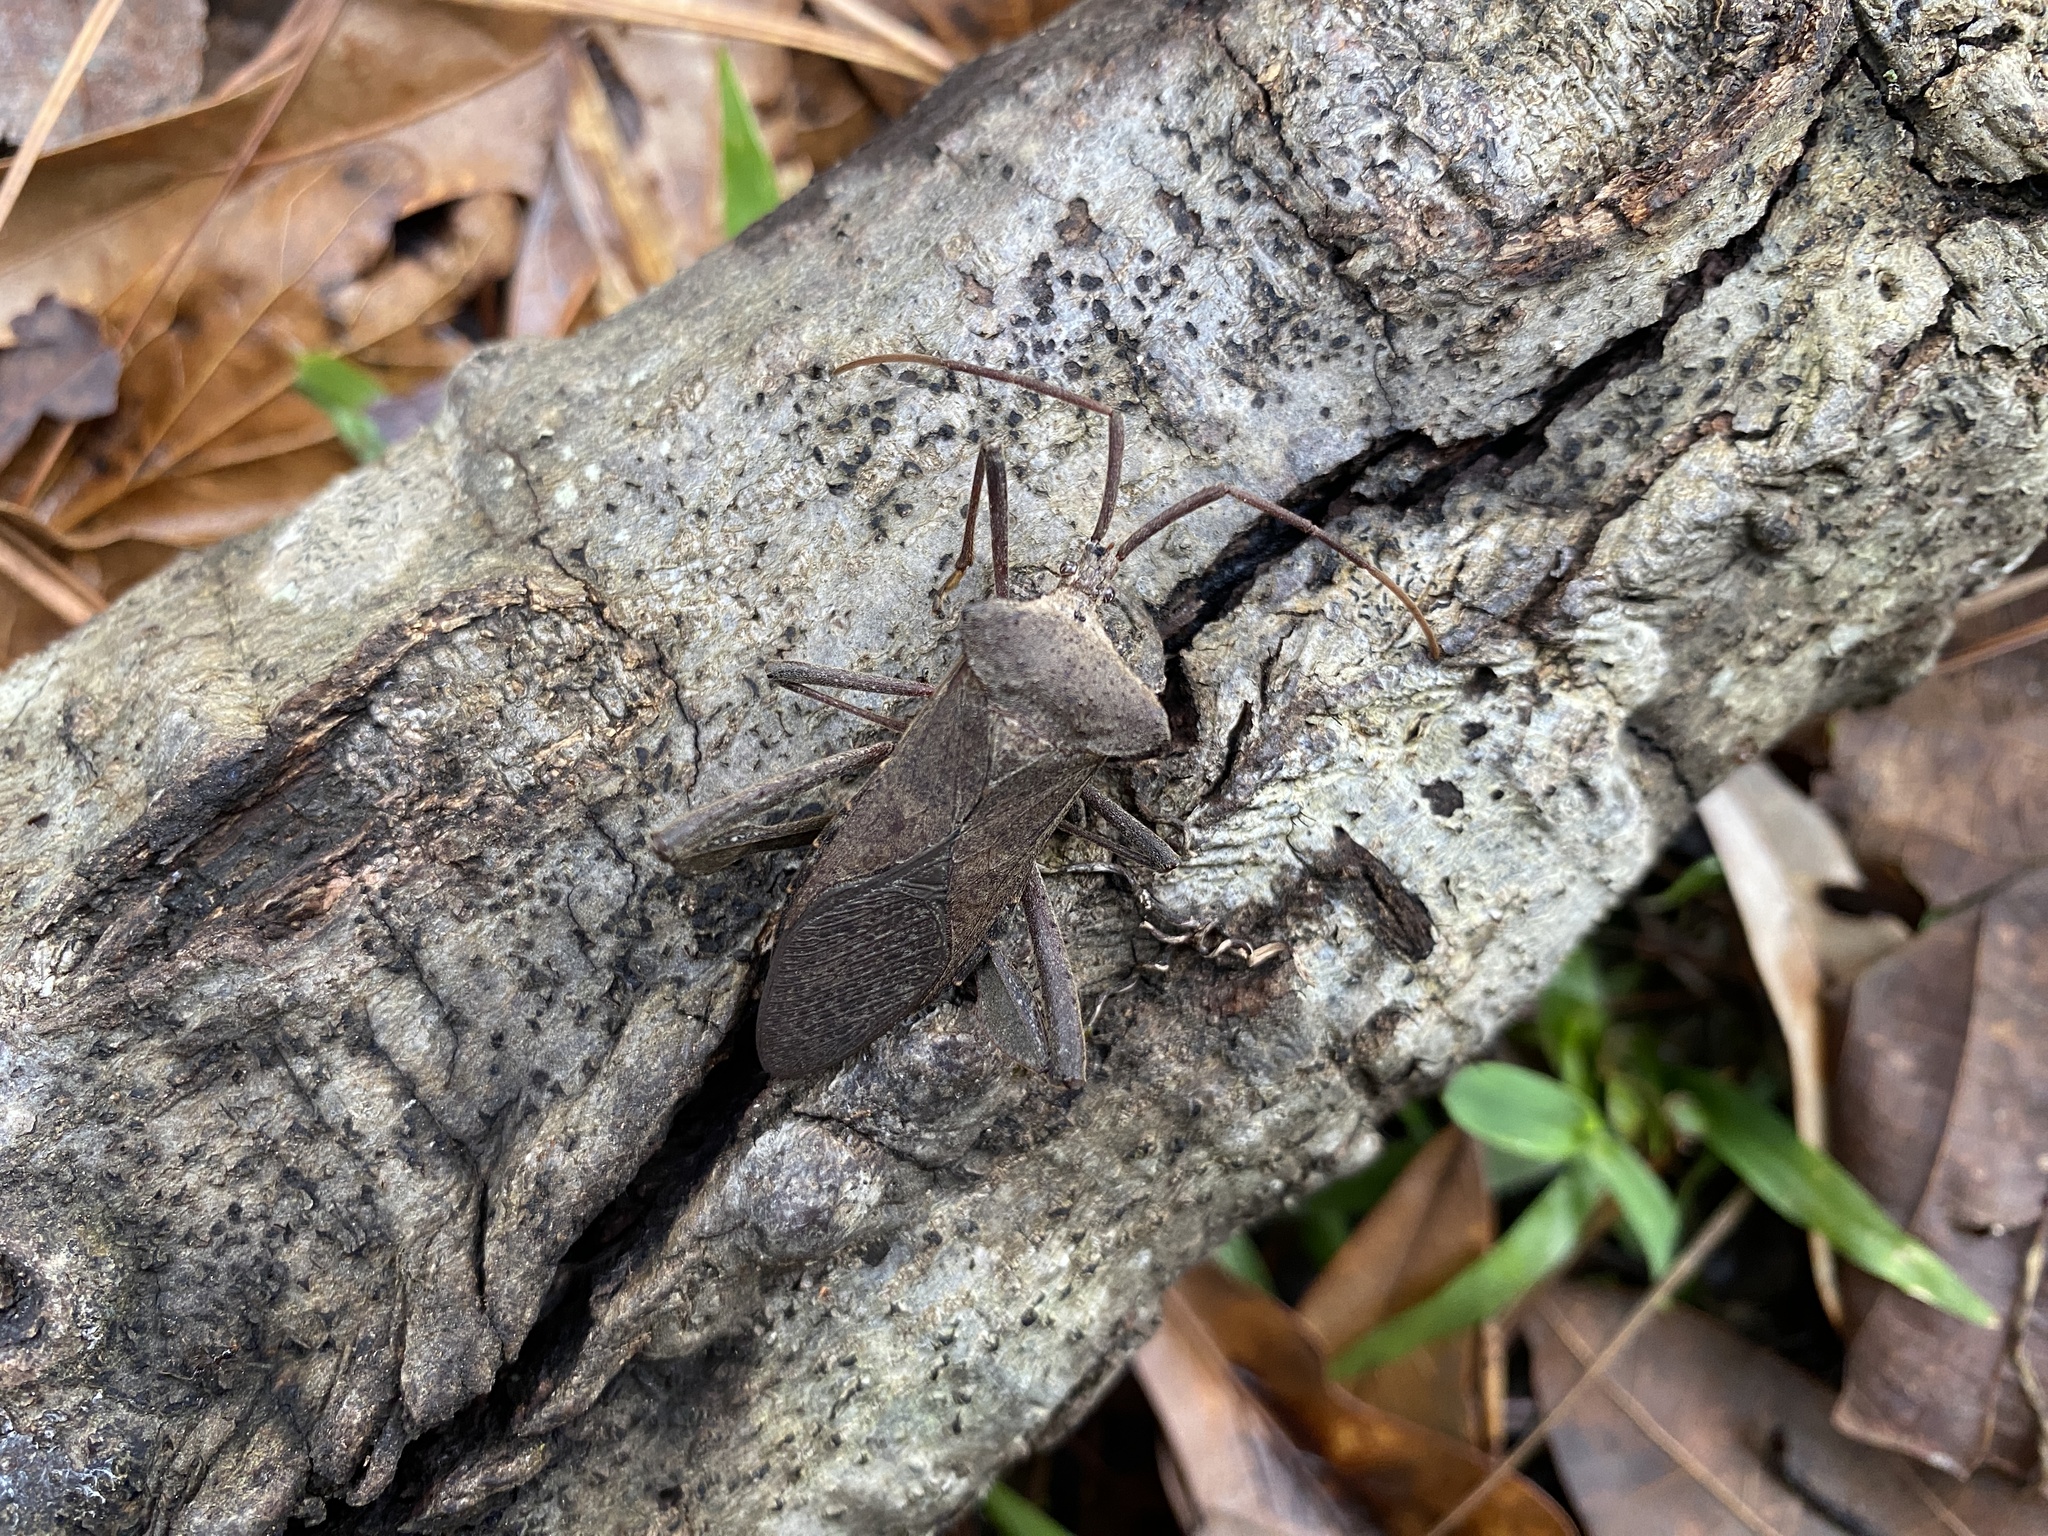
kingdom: Animalia
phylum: Arthropoda
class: Insecta
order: Hemiptera
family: Coreidae
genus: Acanthocephala
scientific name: Acanthocephala declivis
